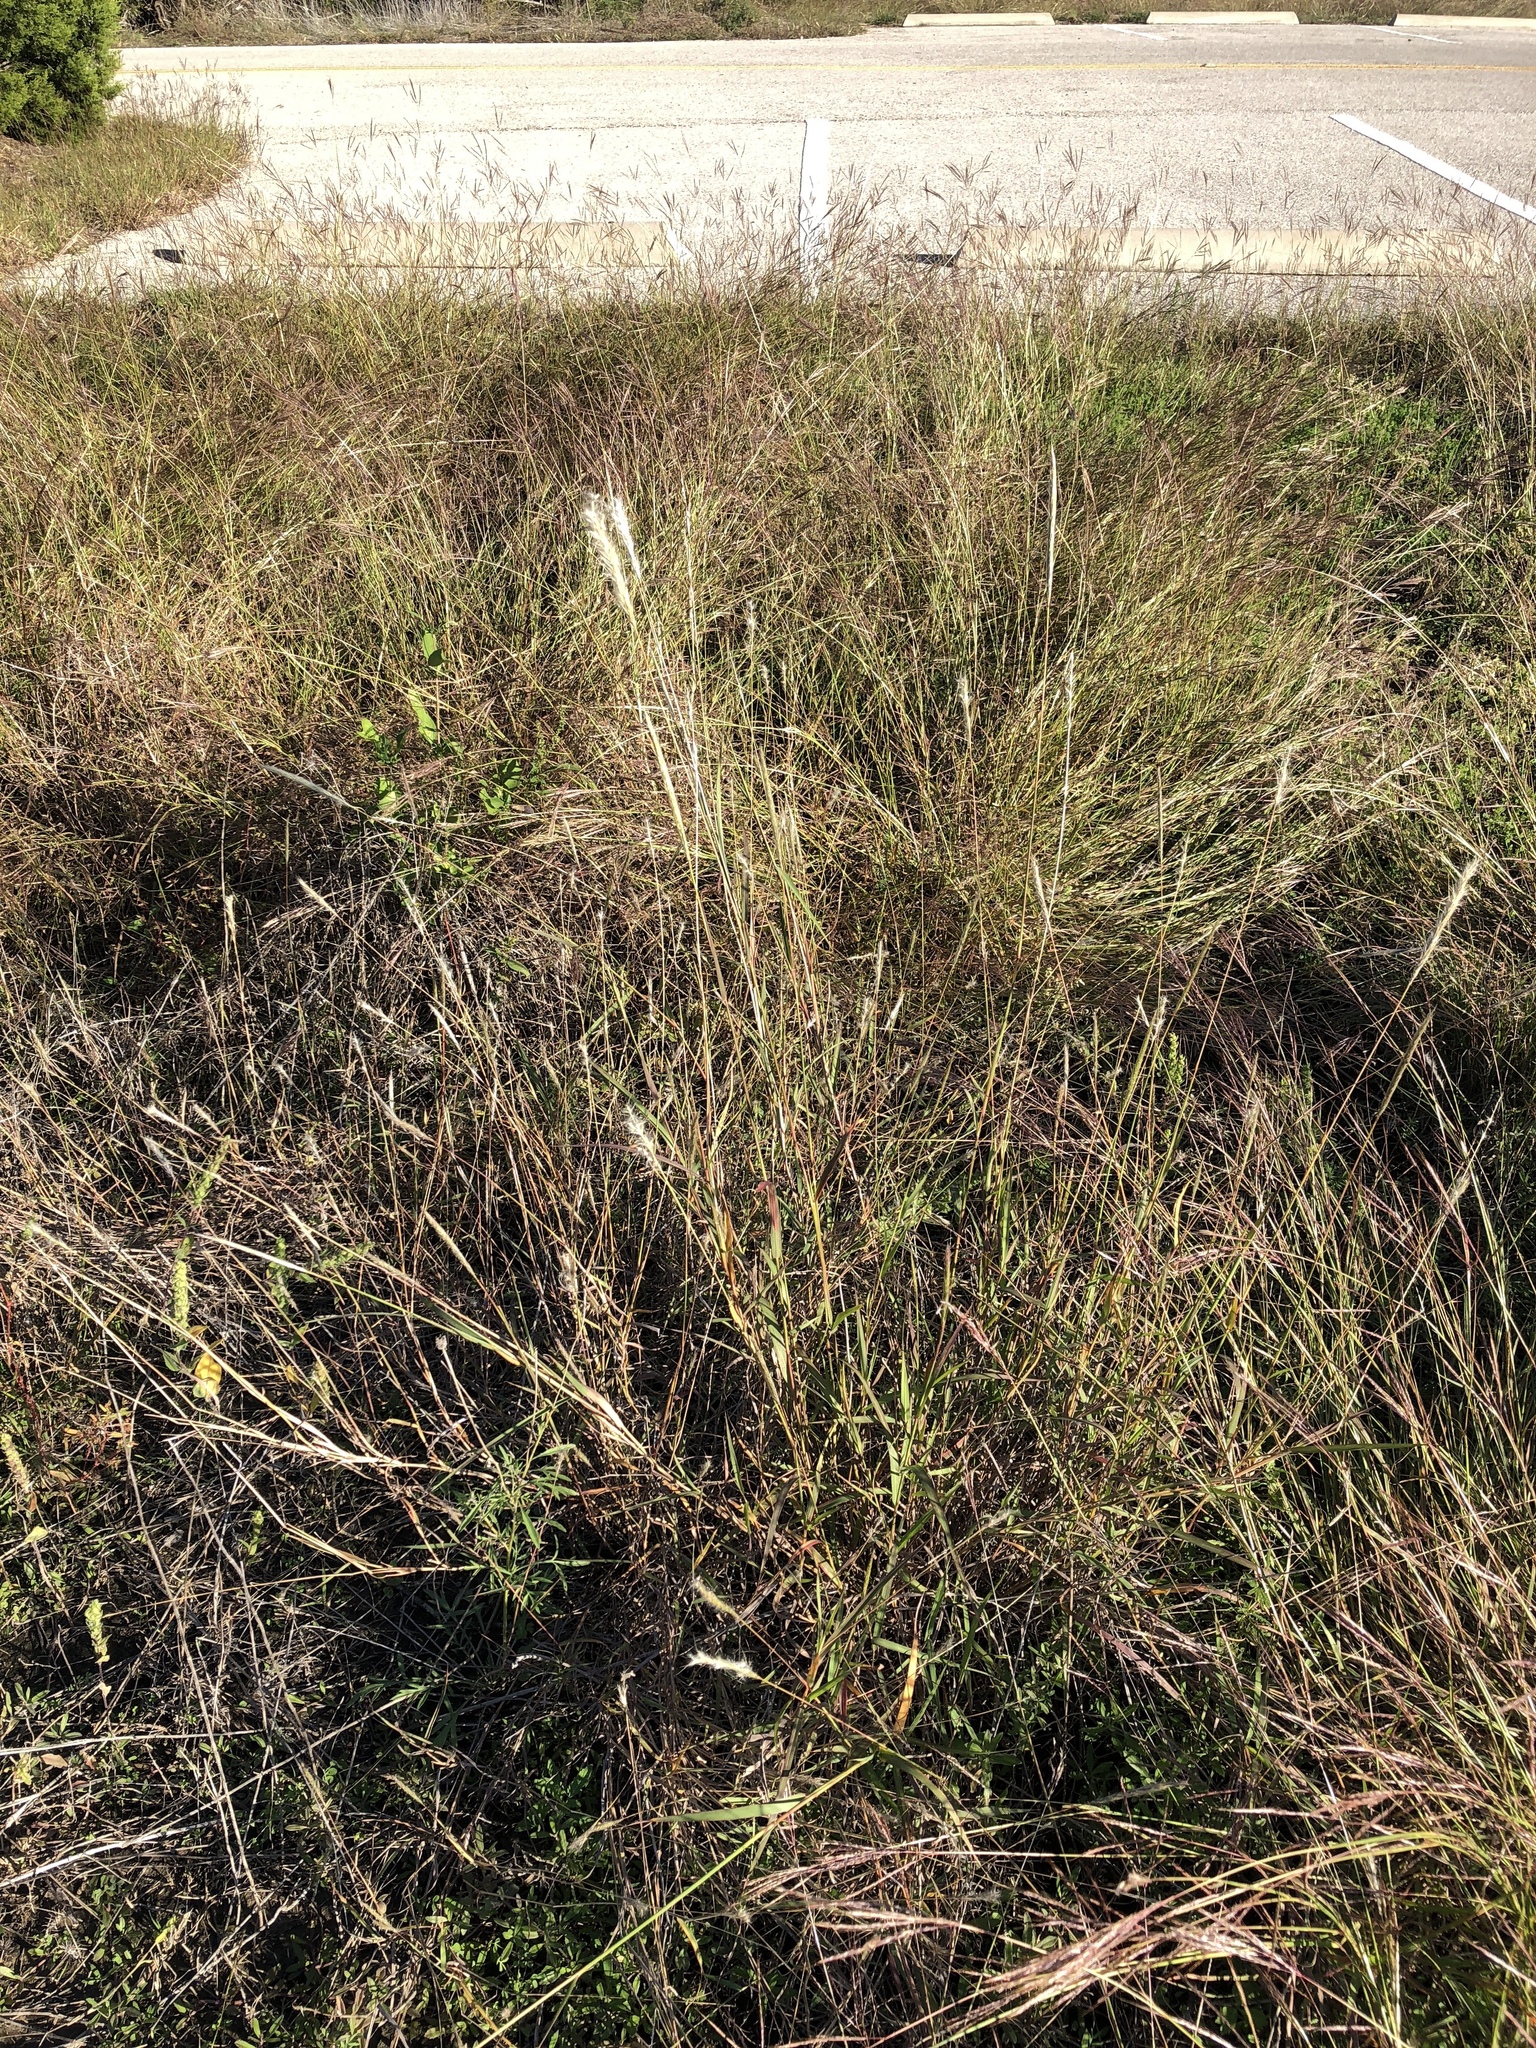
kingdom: Plantae
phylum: Tracheophyta
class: Liliopsida
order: Poales
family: Poaceae
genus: Bothriochloa
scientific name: Bothriochloa torreyana
